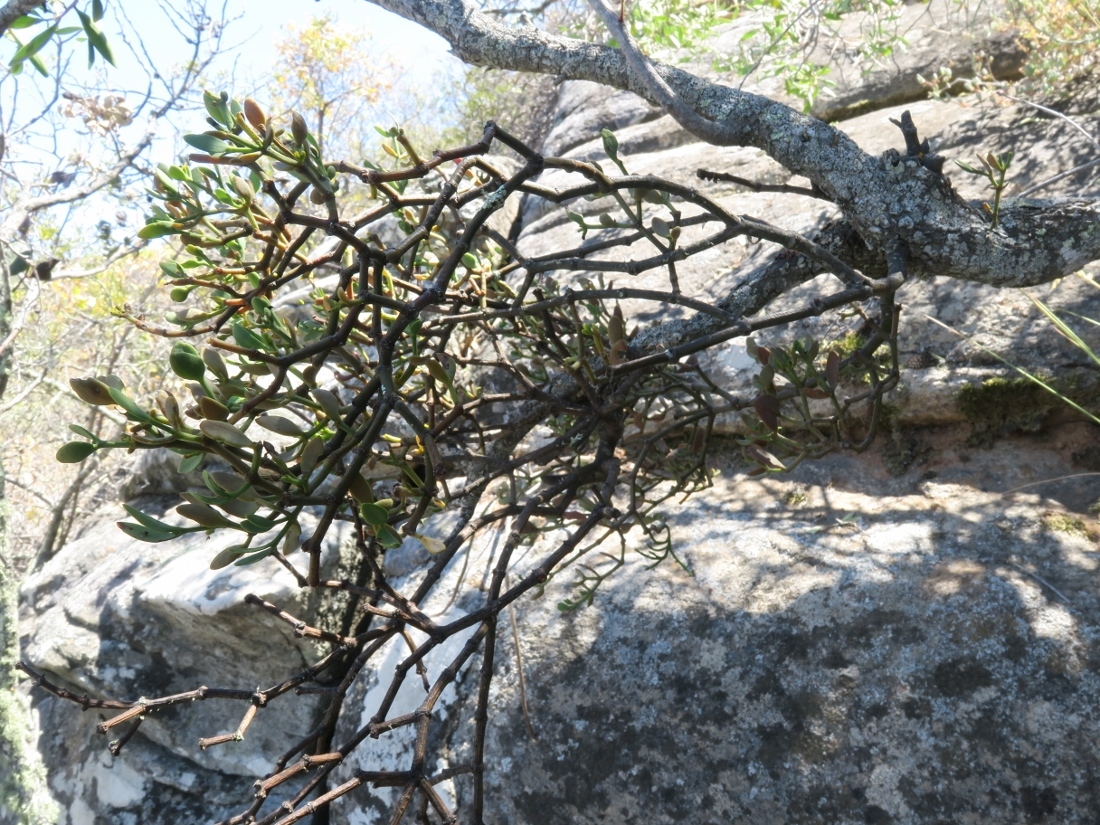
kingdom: Plantae
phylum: Tracheophyta
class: Magnoliopsida
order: Santalales
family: Viscaceae
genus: Viscum
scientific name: Viscum rotundifolium
